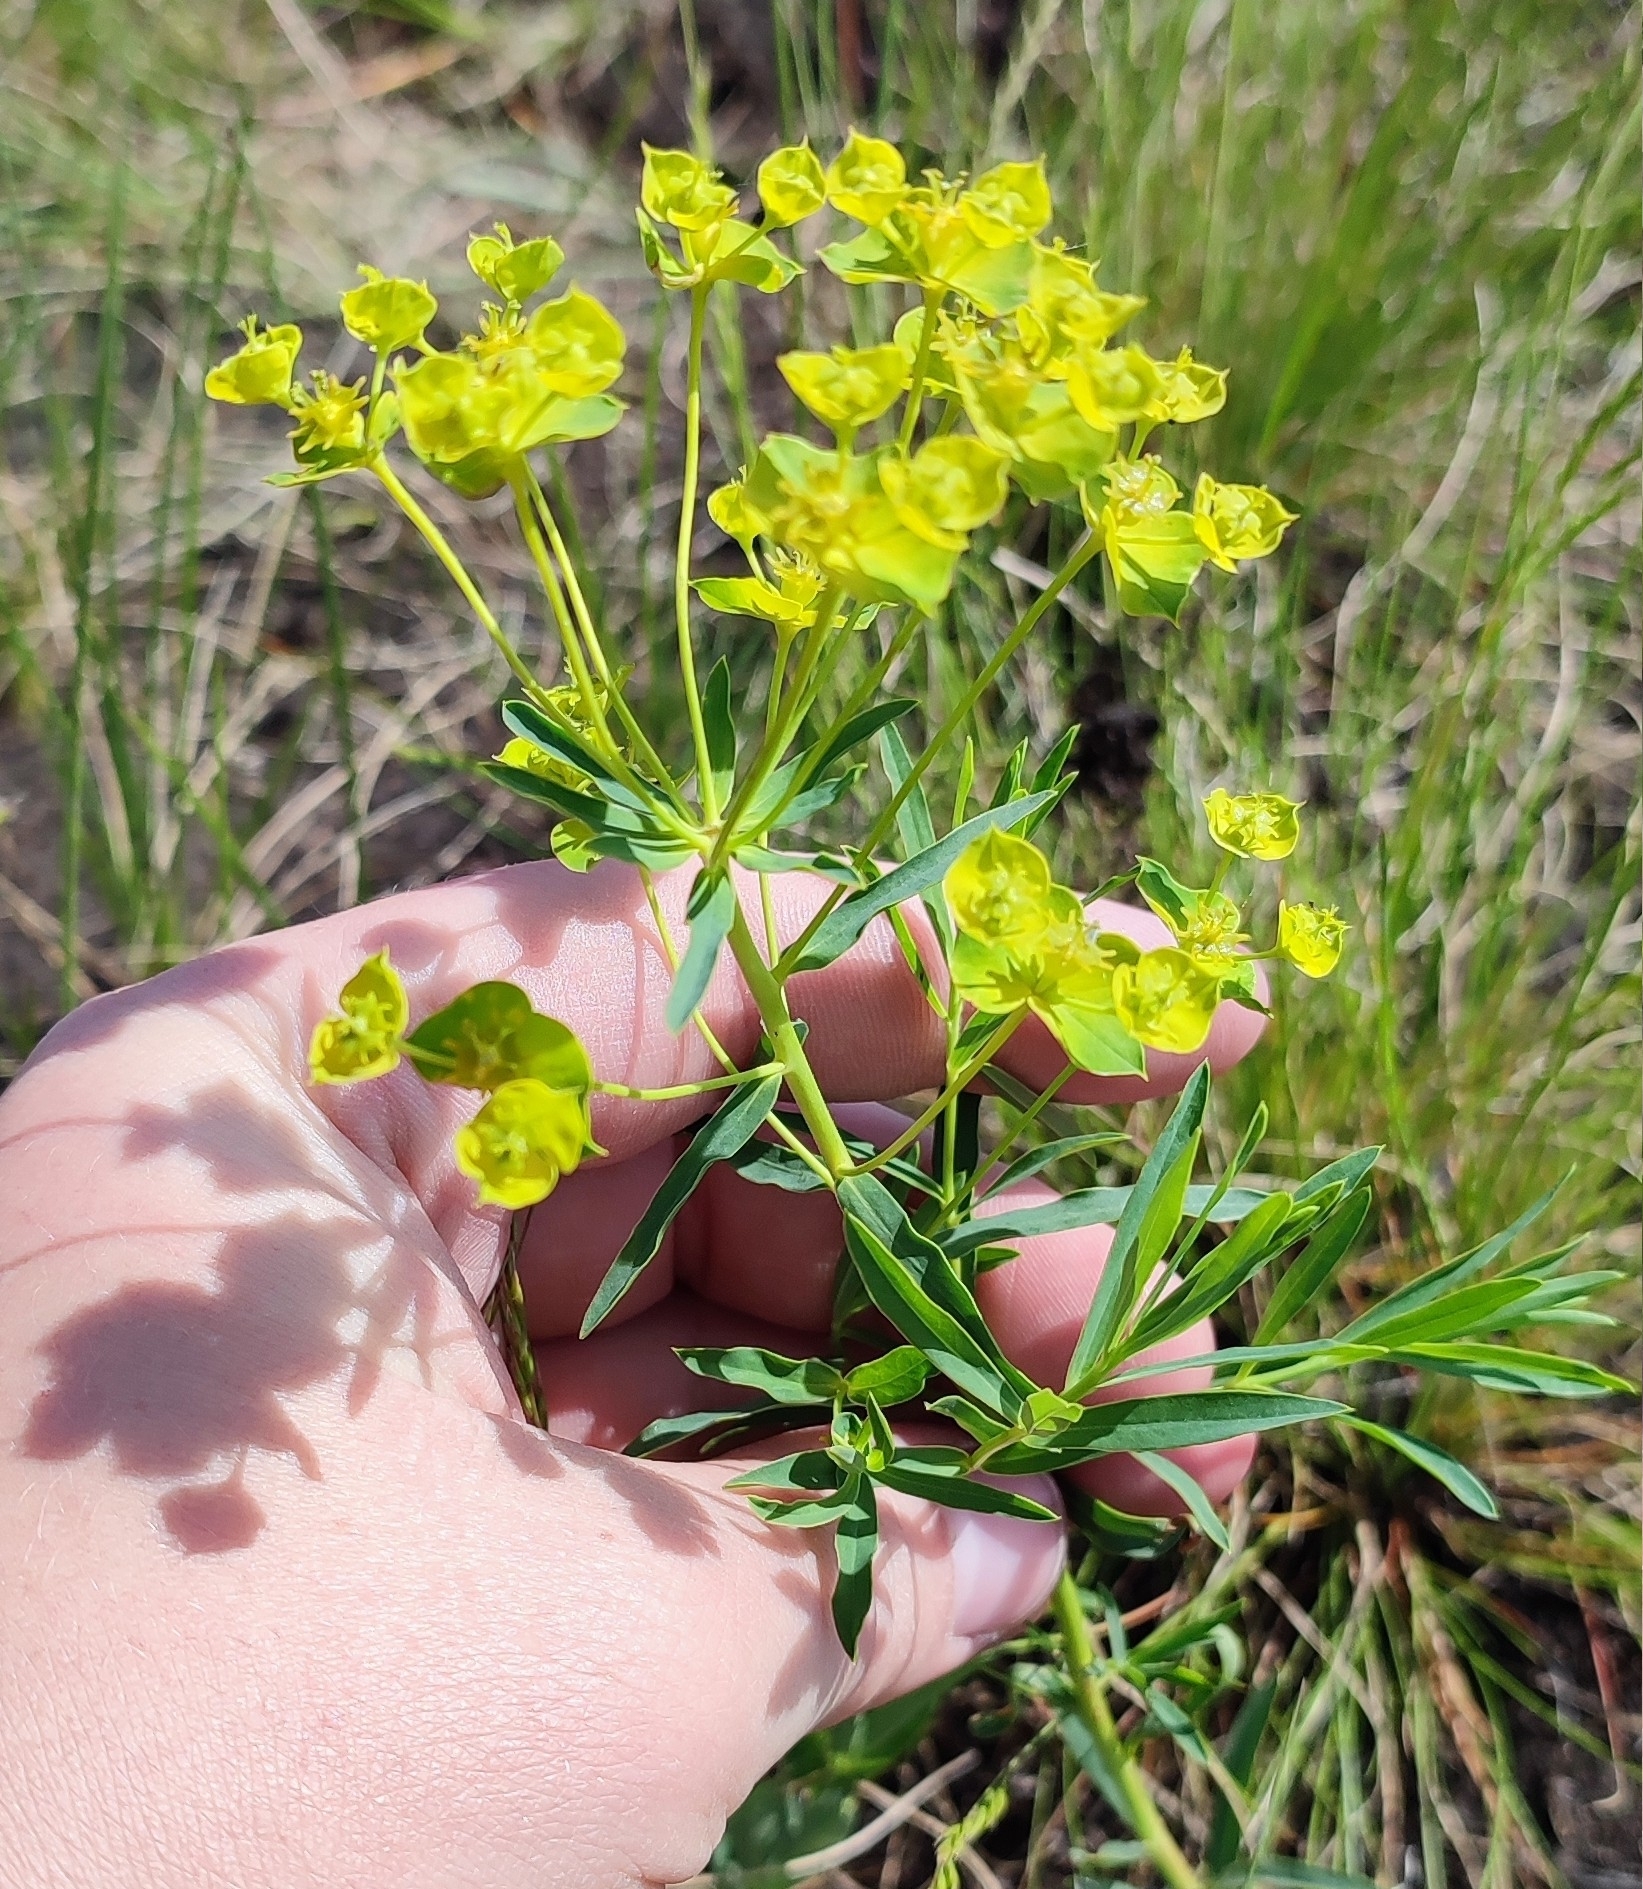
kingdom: Plantae
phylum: Tracheophyta
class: Magnoliopsida
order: Malpighiales
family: Euphorbiaceae
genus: Euphorbia
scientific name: Euphorbia virgata
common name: Leafy spurge
